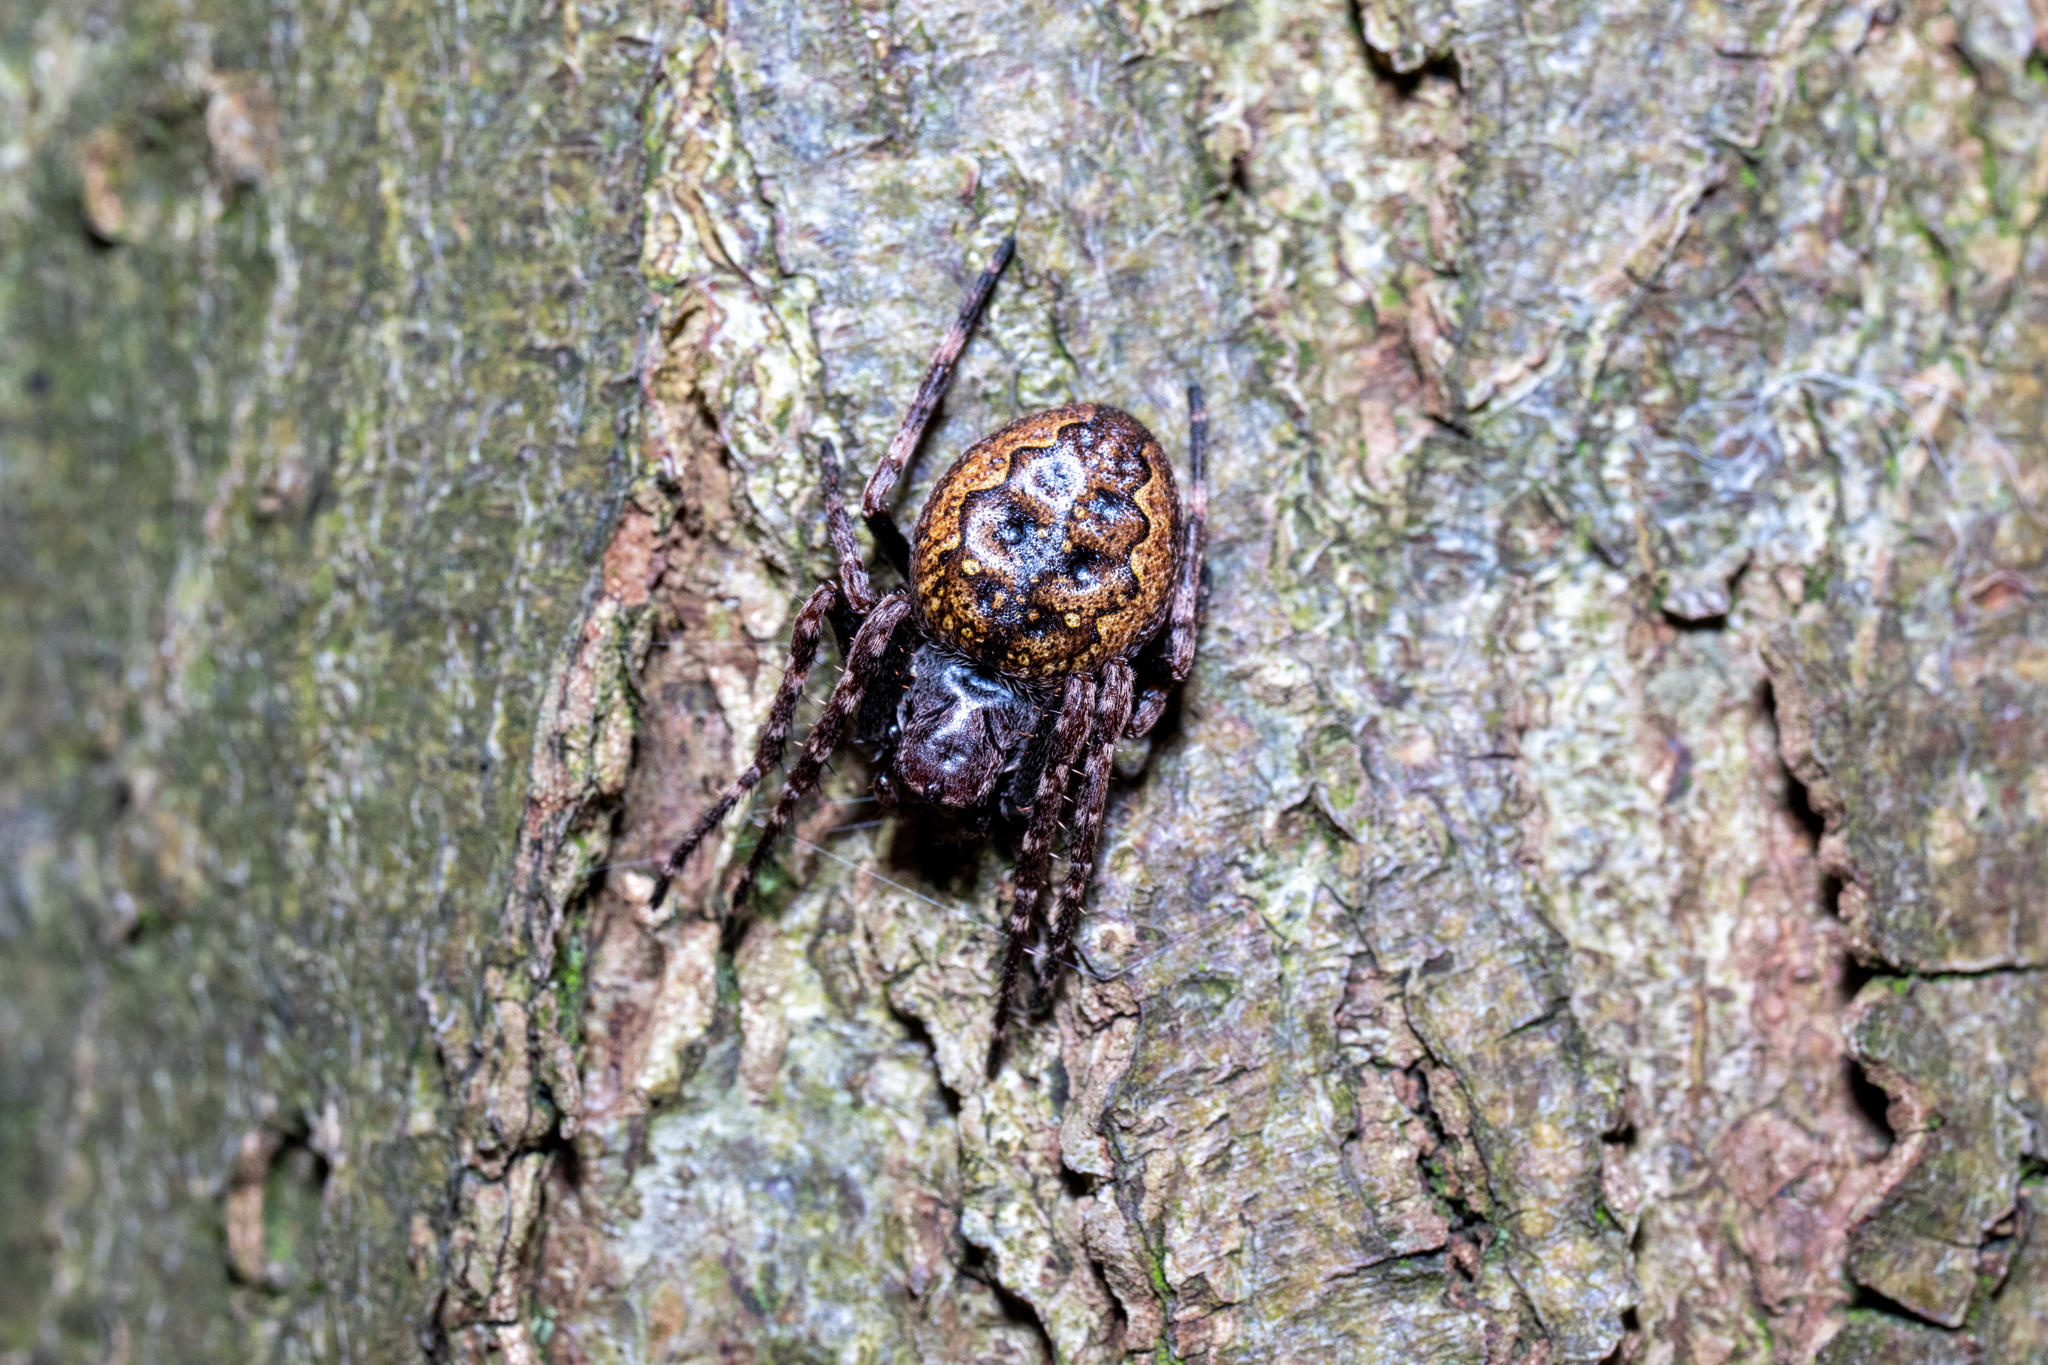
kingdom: Animalia
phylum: Arthropoda
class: Arachnida
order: Araneae
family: Araneidae
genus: Nuctenea
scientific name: Nuctenea umbratica
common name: Toad spider
